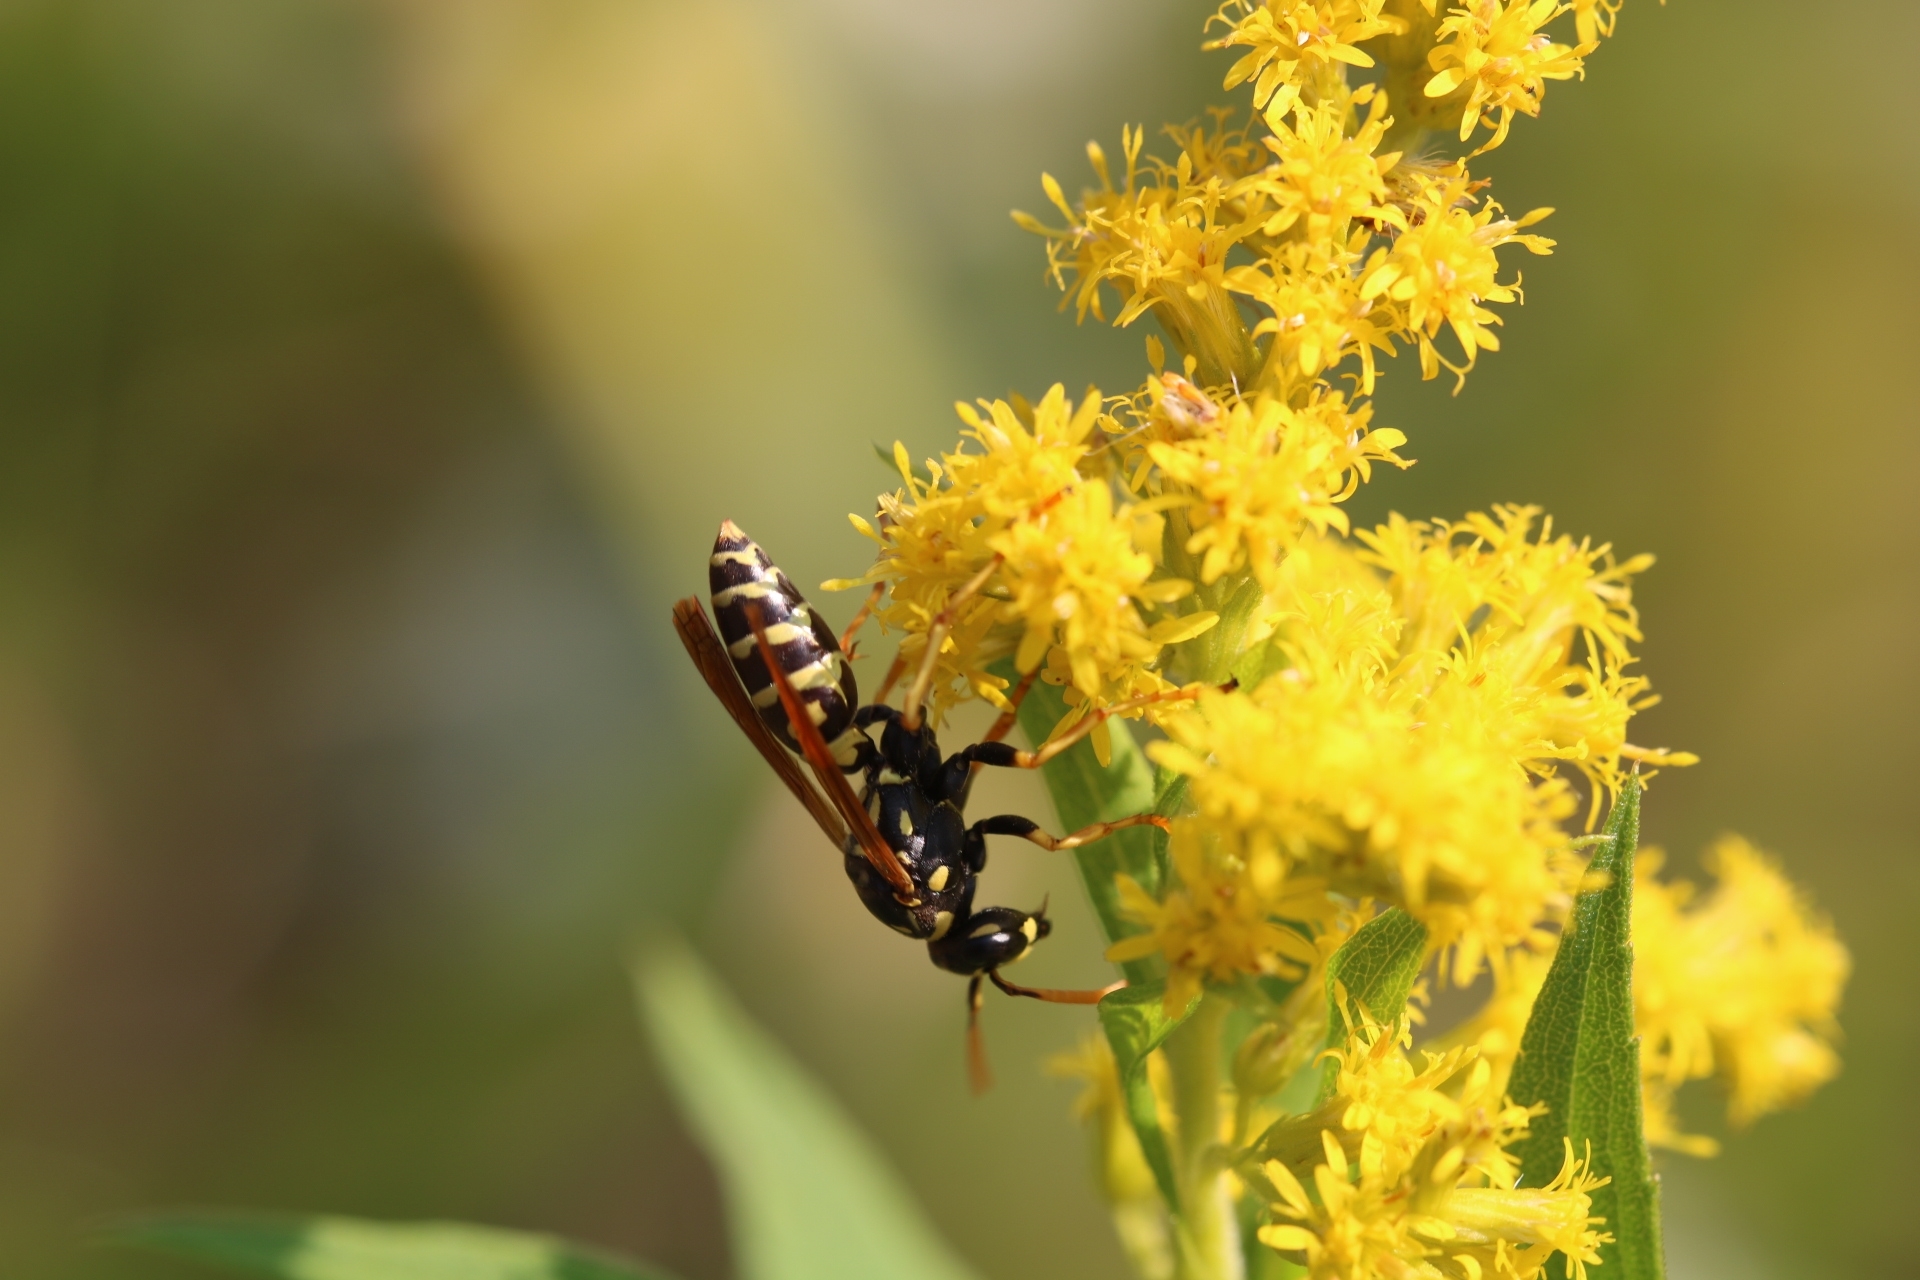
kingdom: Animalia
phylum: Arthropoda
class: Insecta
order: Hymenoptera
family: Eumenidae
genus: Polistes
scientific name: Polistes dominula
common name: Paper wasp
